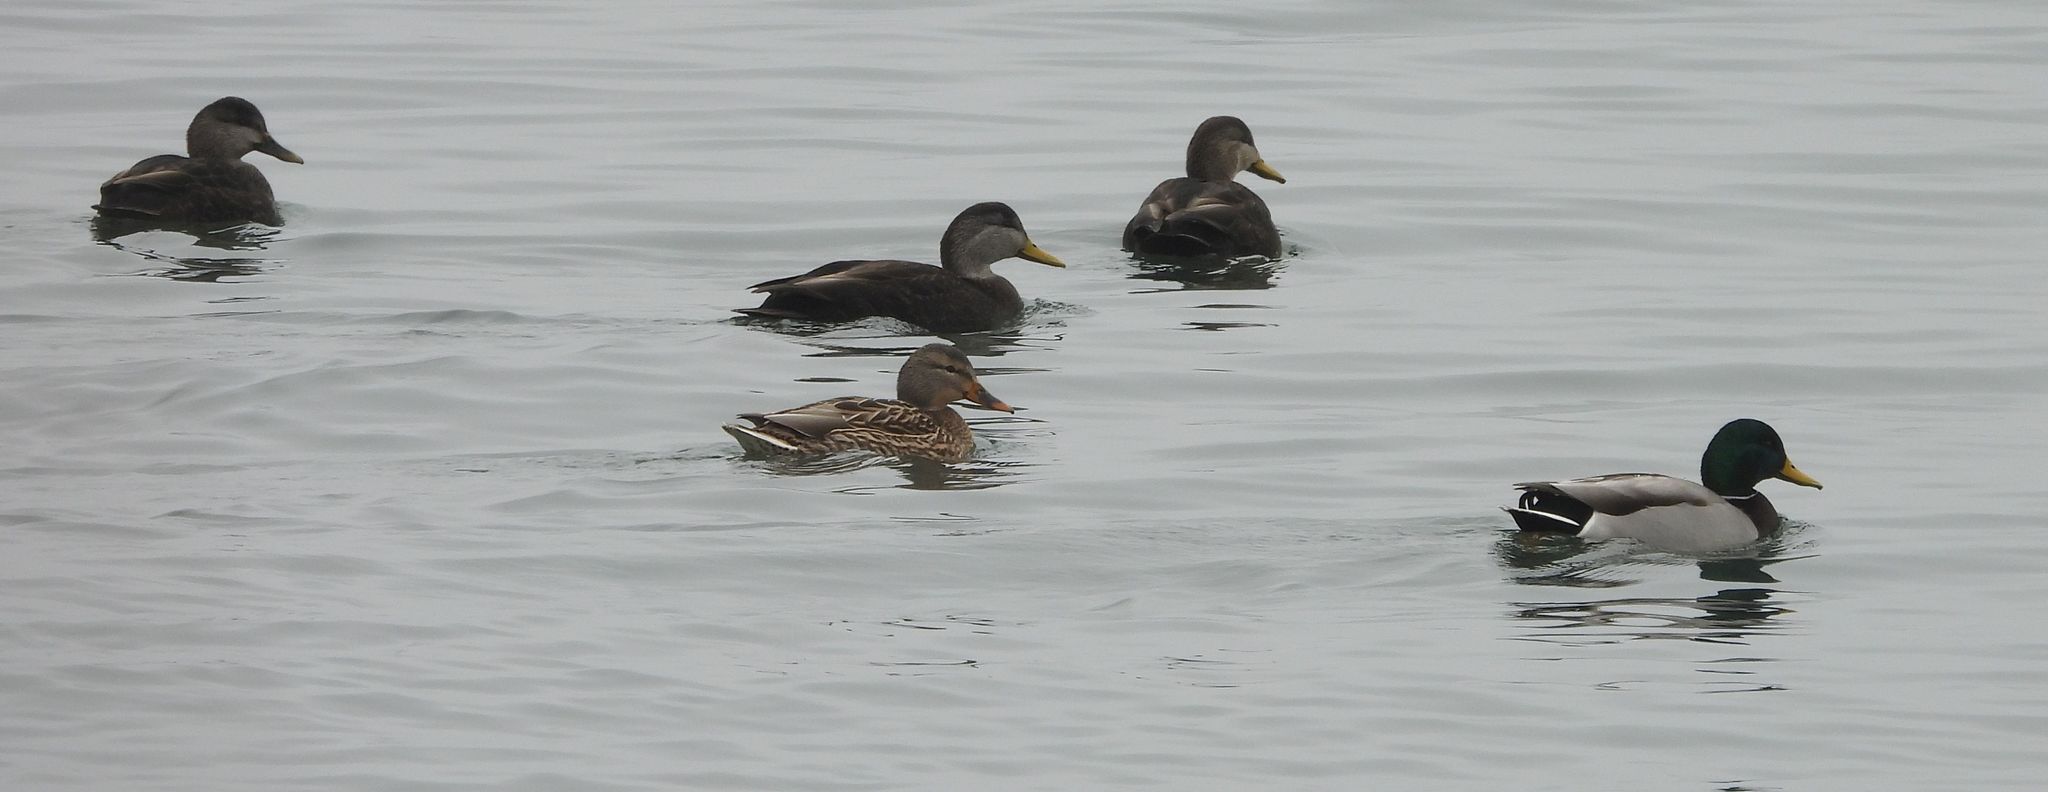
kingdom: Animalia
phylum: Chordata
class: Aves
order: Anseriformes
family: Anatidae
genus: Anas
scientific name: Anas platyrhynchos
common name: Mallard
